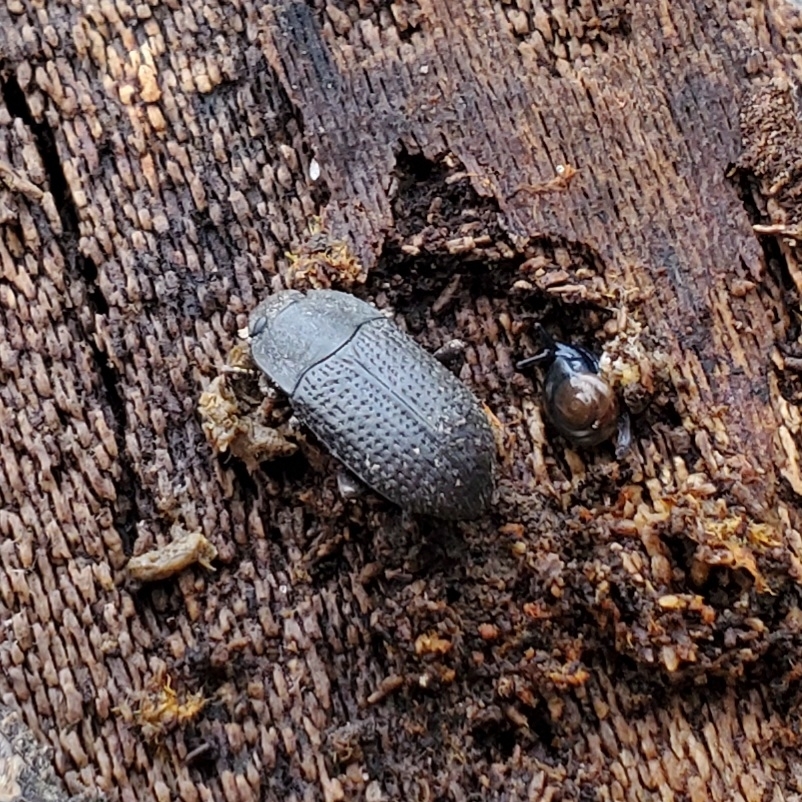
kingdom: Animalia
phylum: Arthropoda
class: Insecta
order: Coleoptera
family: Tenebrionidae
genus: Asiopus
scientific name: Asiopus
